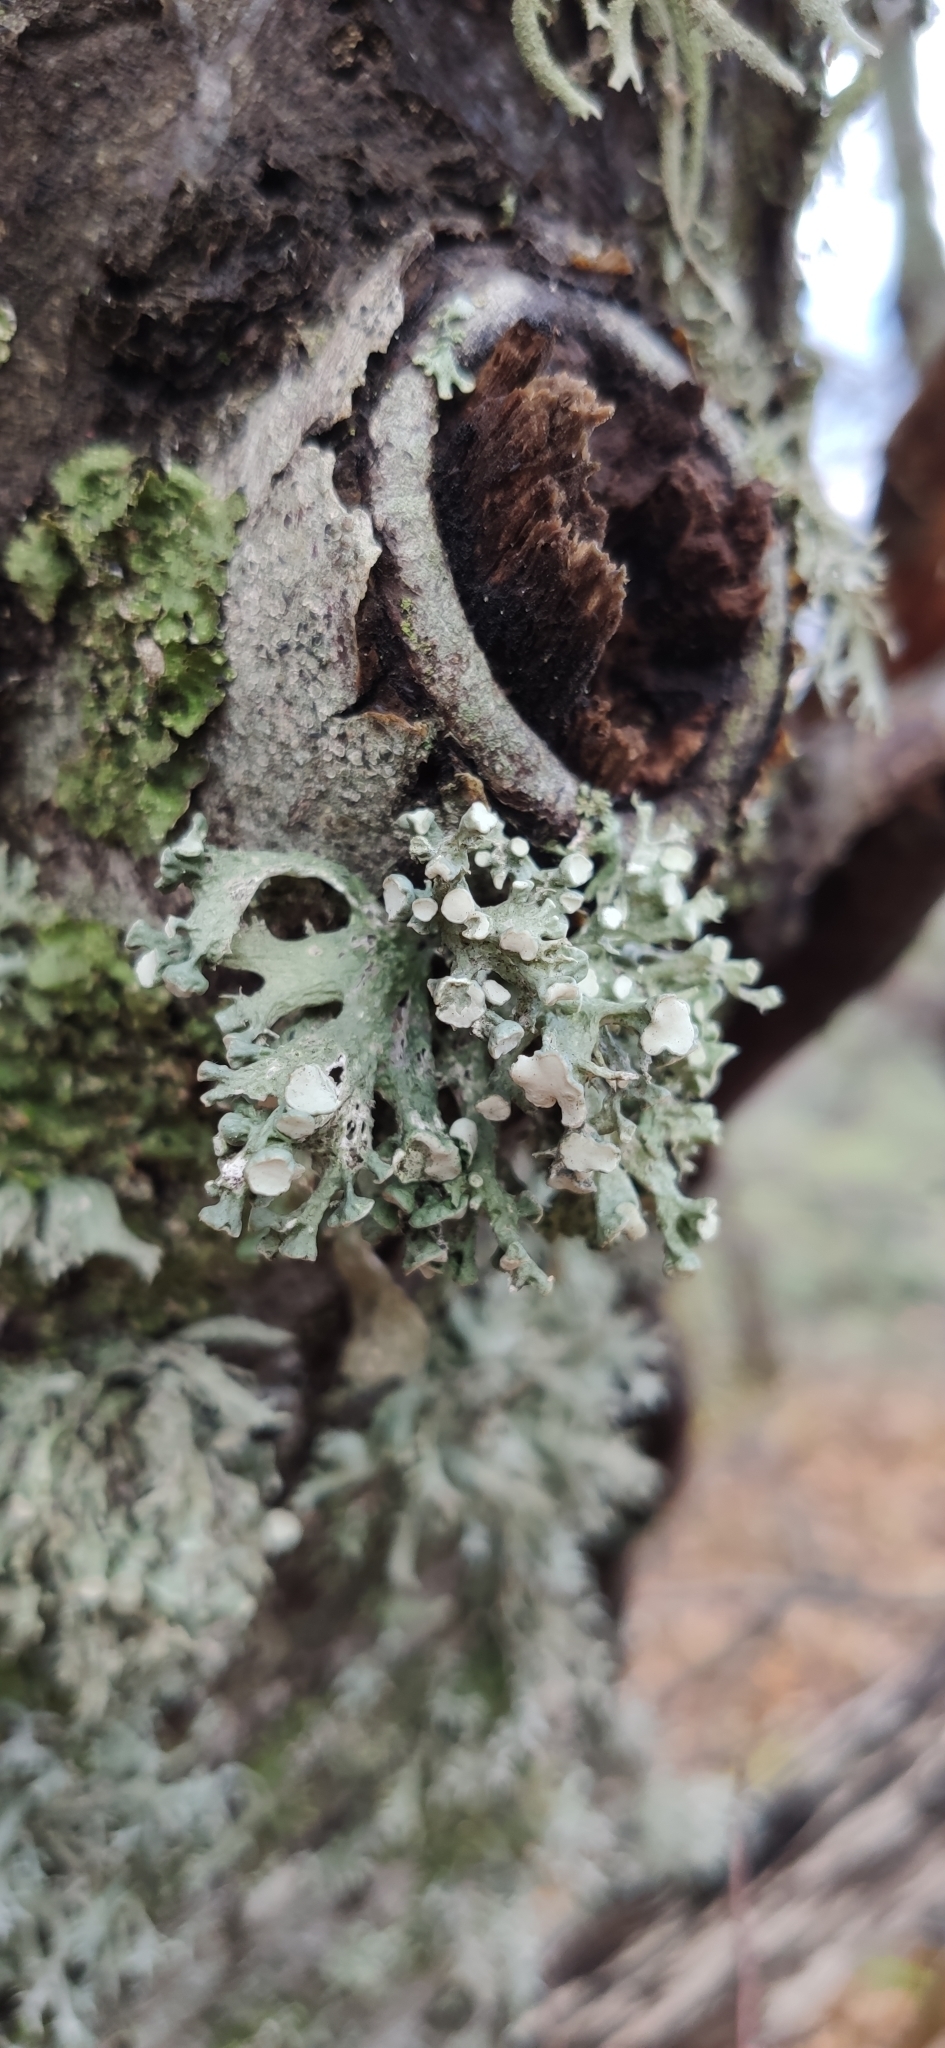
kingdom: Fungi
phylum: Ascomycota
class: Lecanoromycetes
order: Lecanorales
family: Ramalinaceae
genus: Ramalina
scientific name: Ramalina fastigiata
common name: Dotted ribbon lichen
